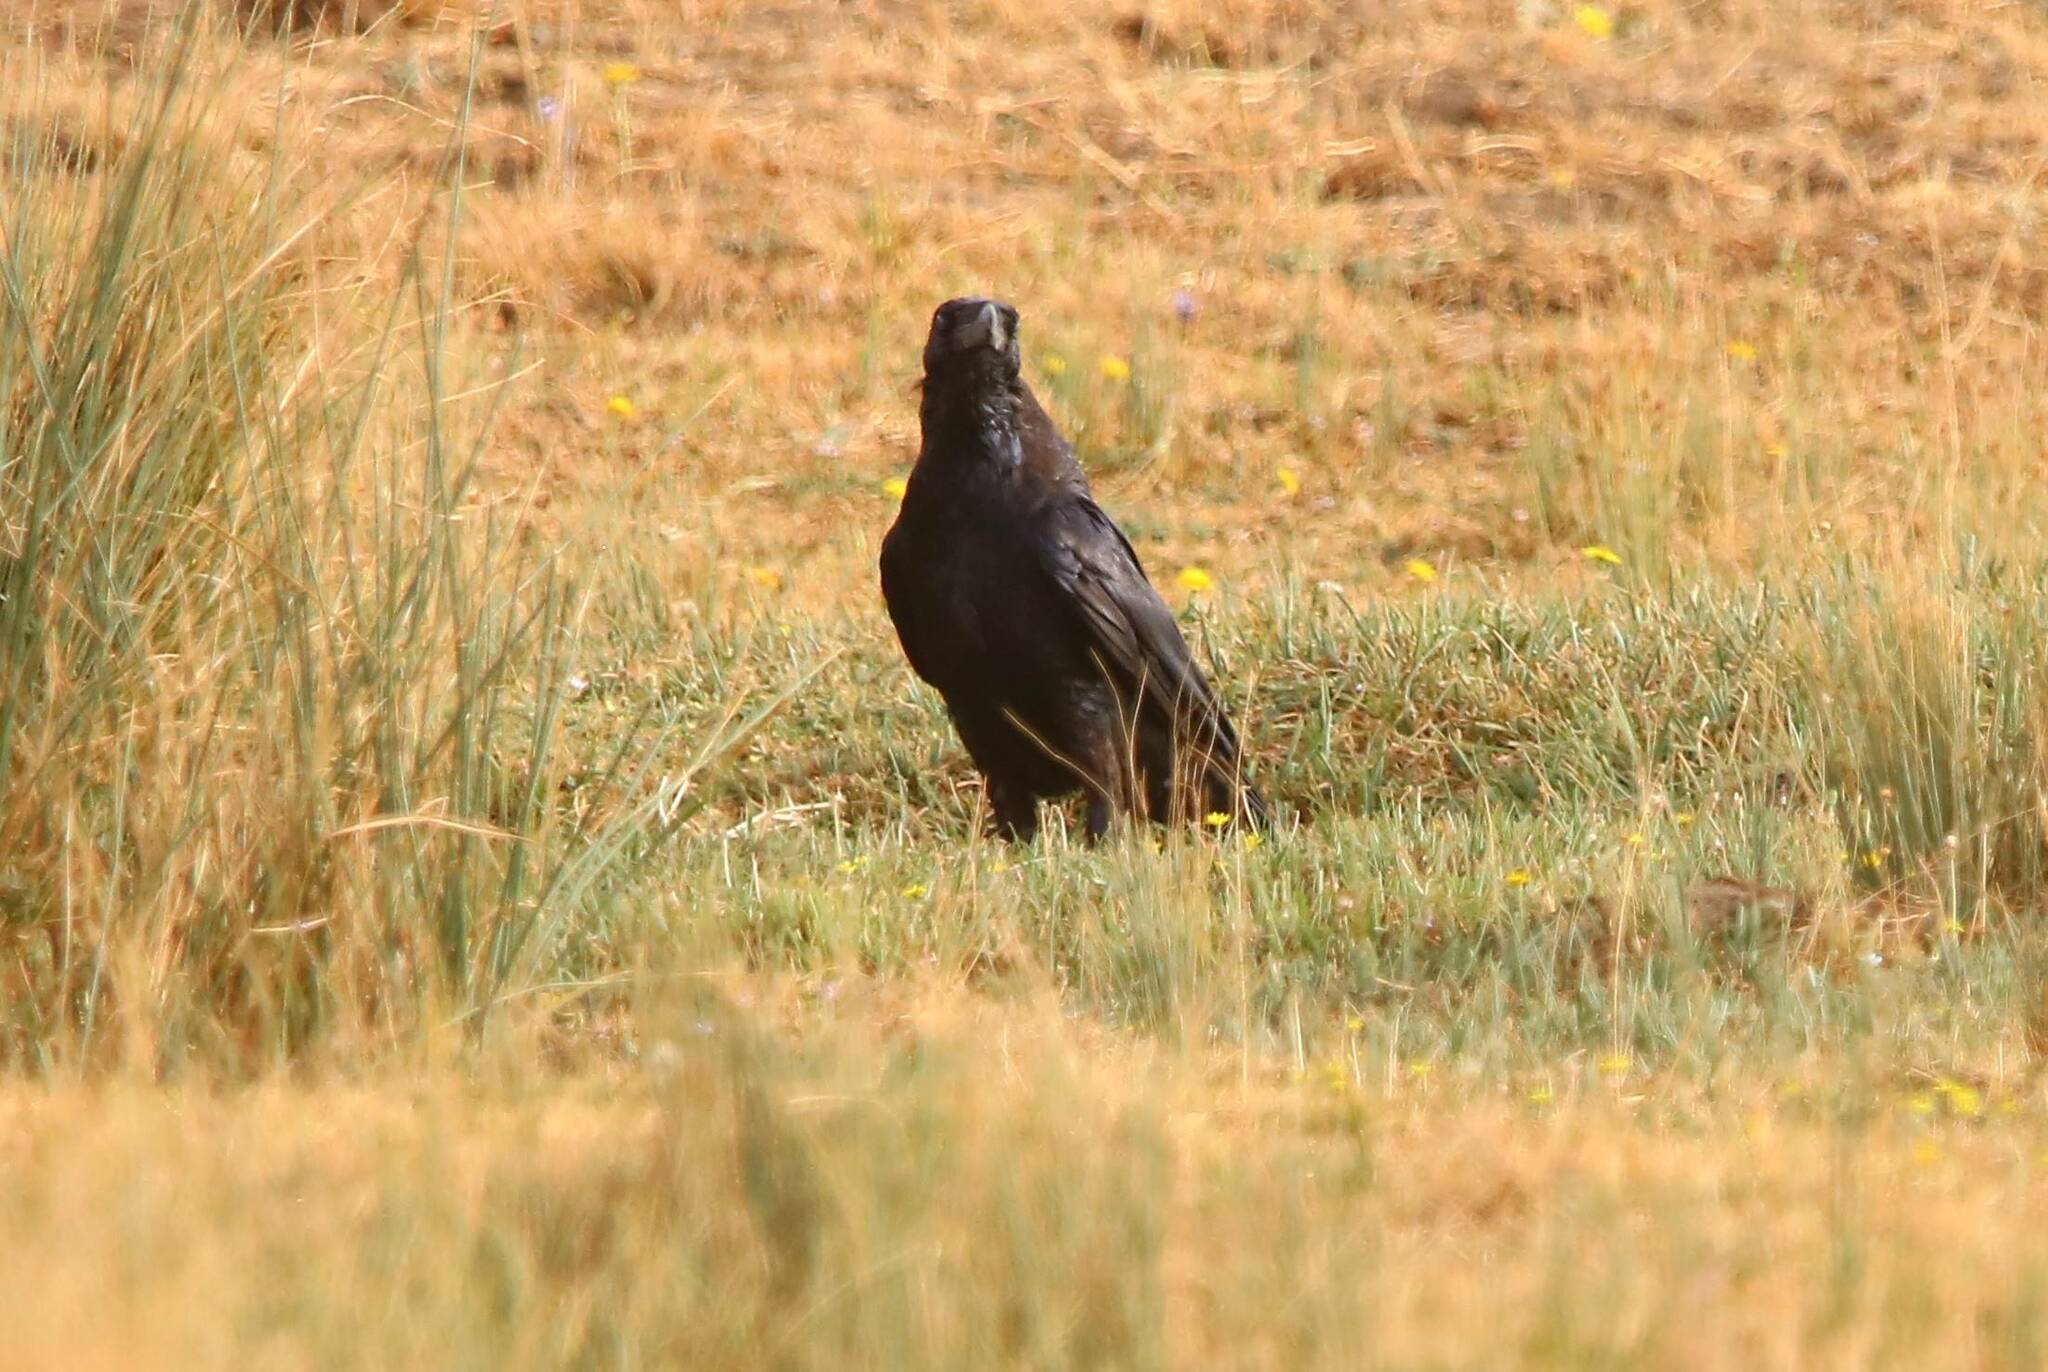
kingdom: Animalia
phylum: Chordata
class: Aves
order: Passeriformes
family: Corvidae
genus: Corvus
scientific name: Corvus corax
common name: Common raven
